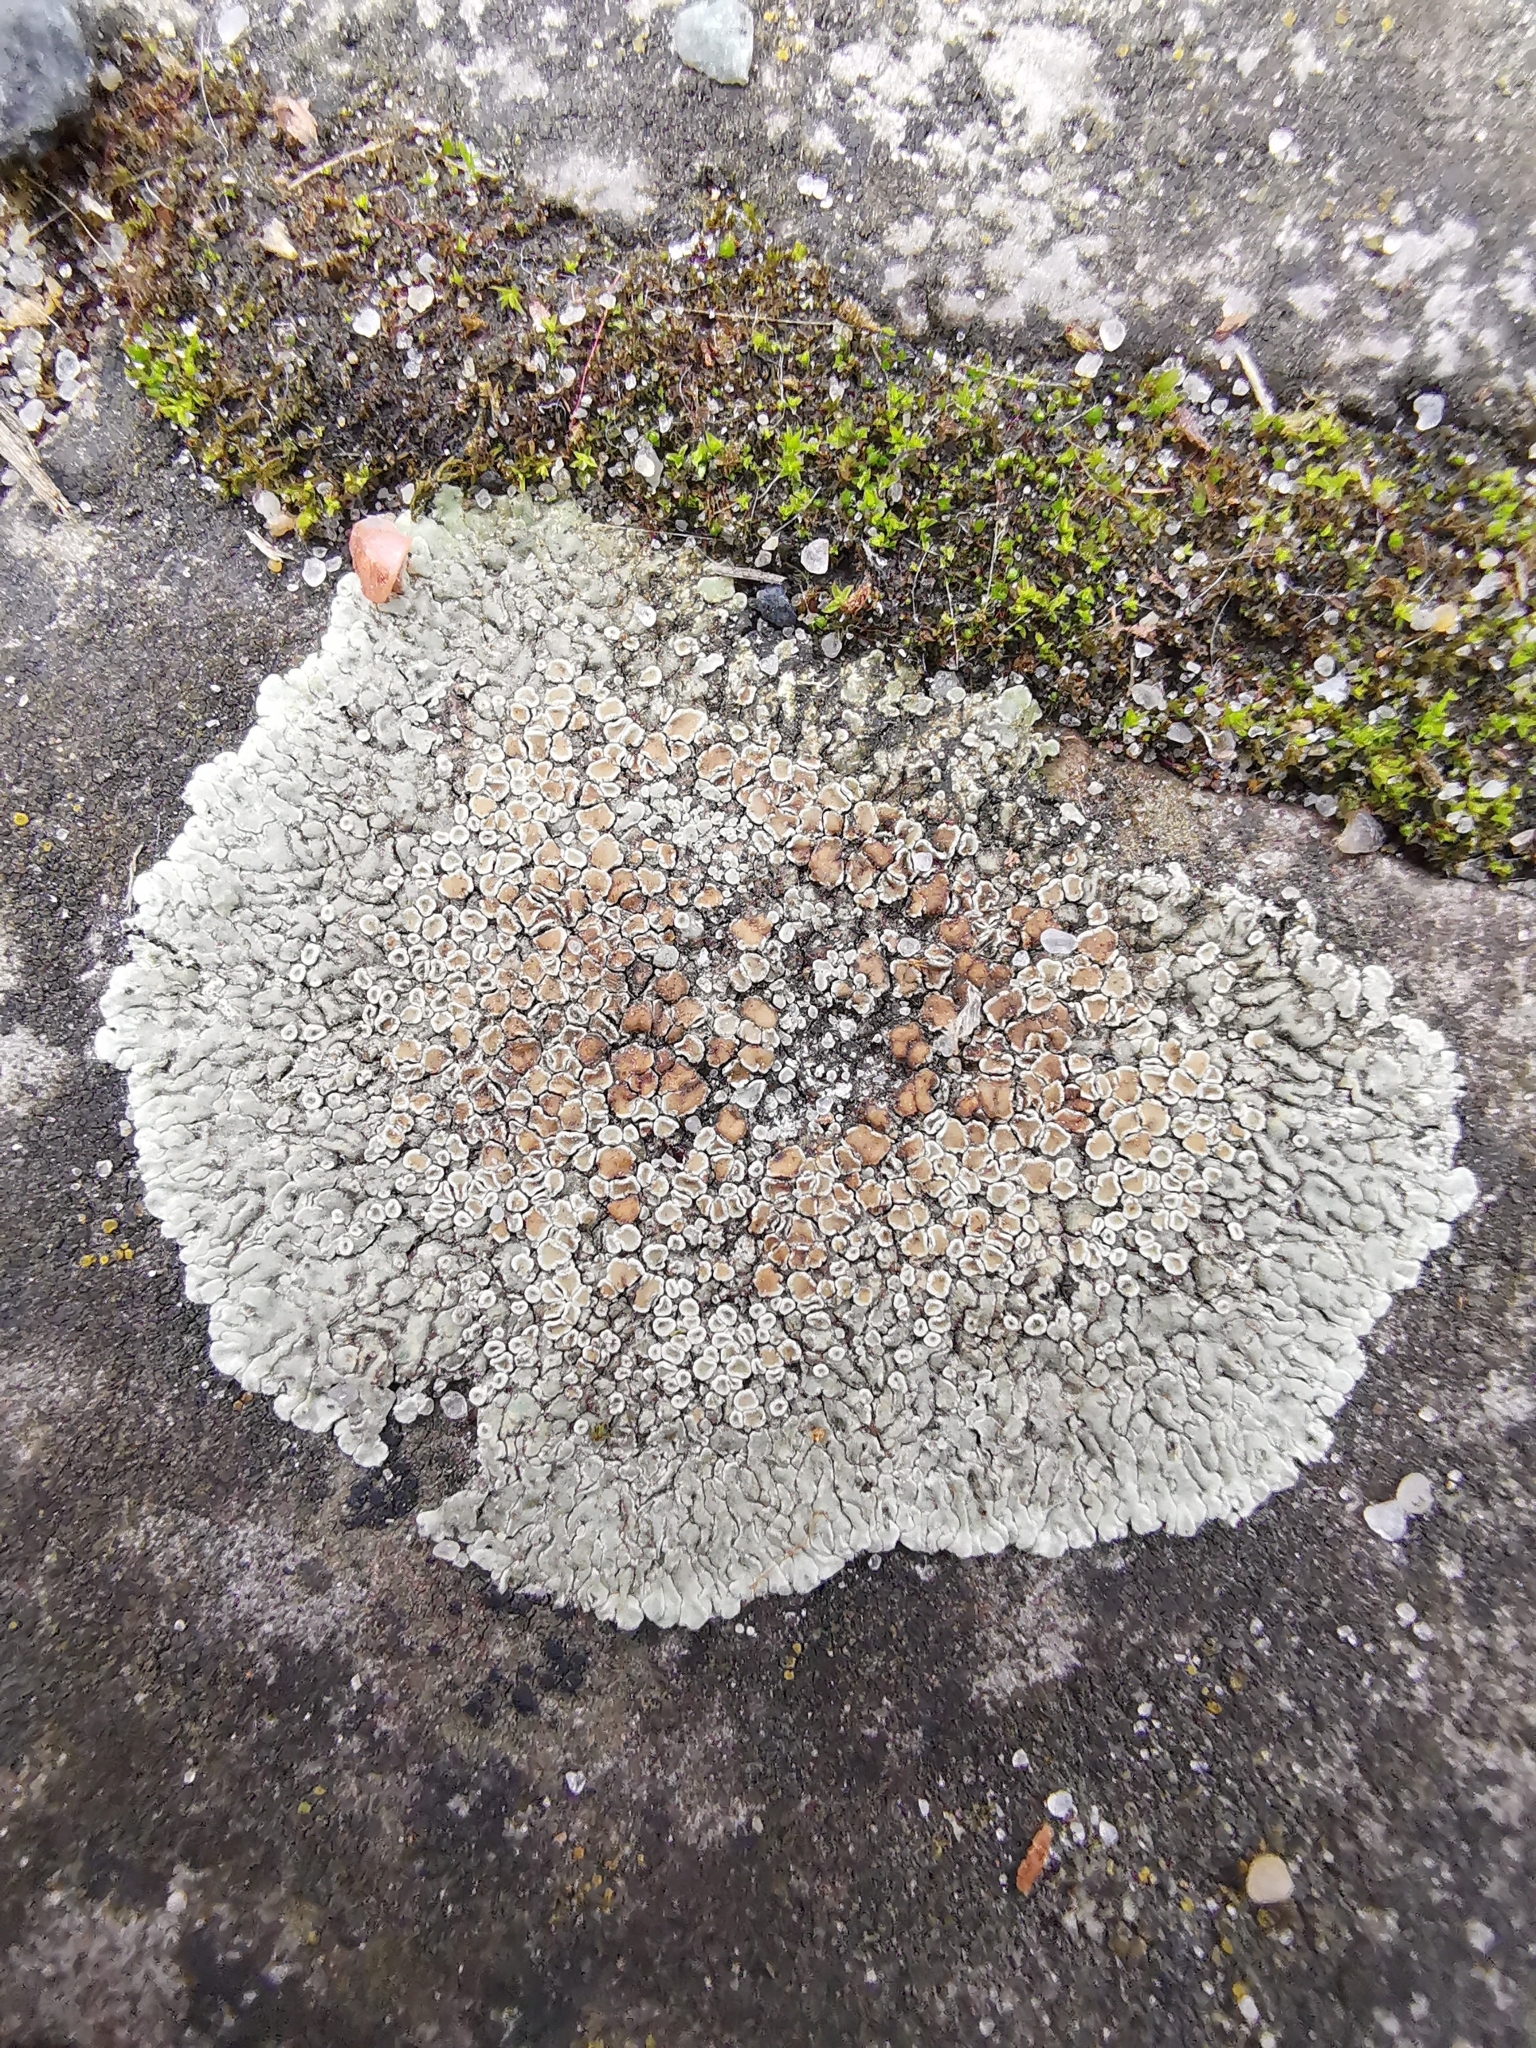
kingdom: Fungi
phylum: Ascomycota
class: Lecanoromycetes
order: Lecanorales
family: Lecanoraceae
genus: Protoparmeliopsis
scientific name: Protoparmeliopsis muralis
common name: Stonewall rim lichen
